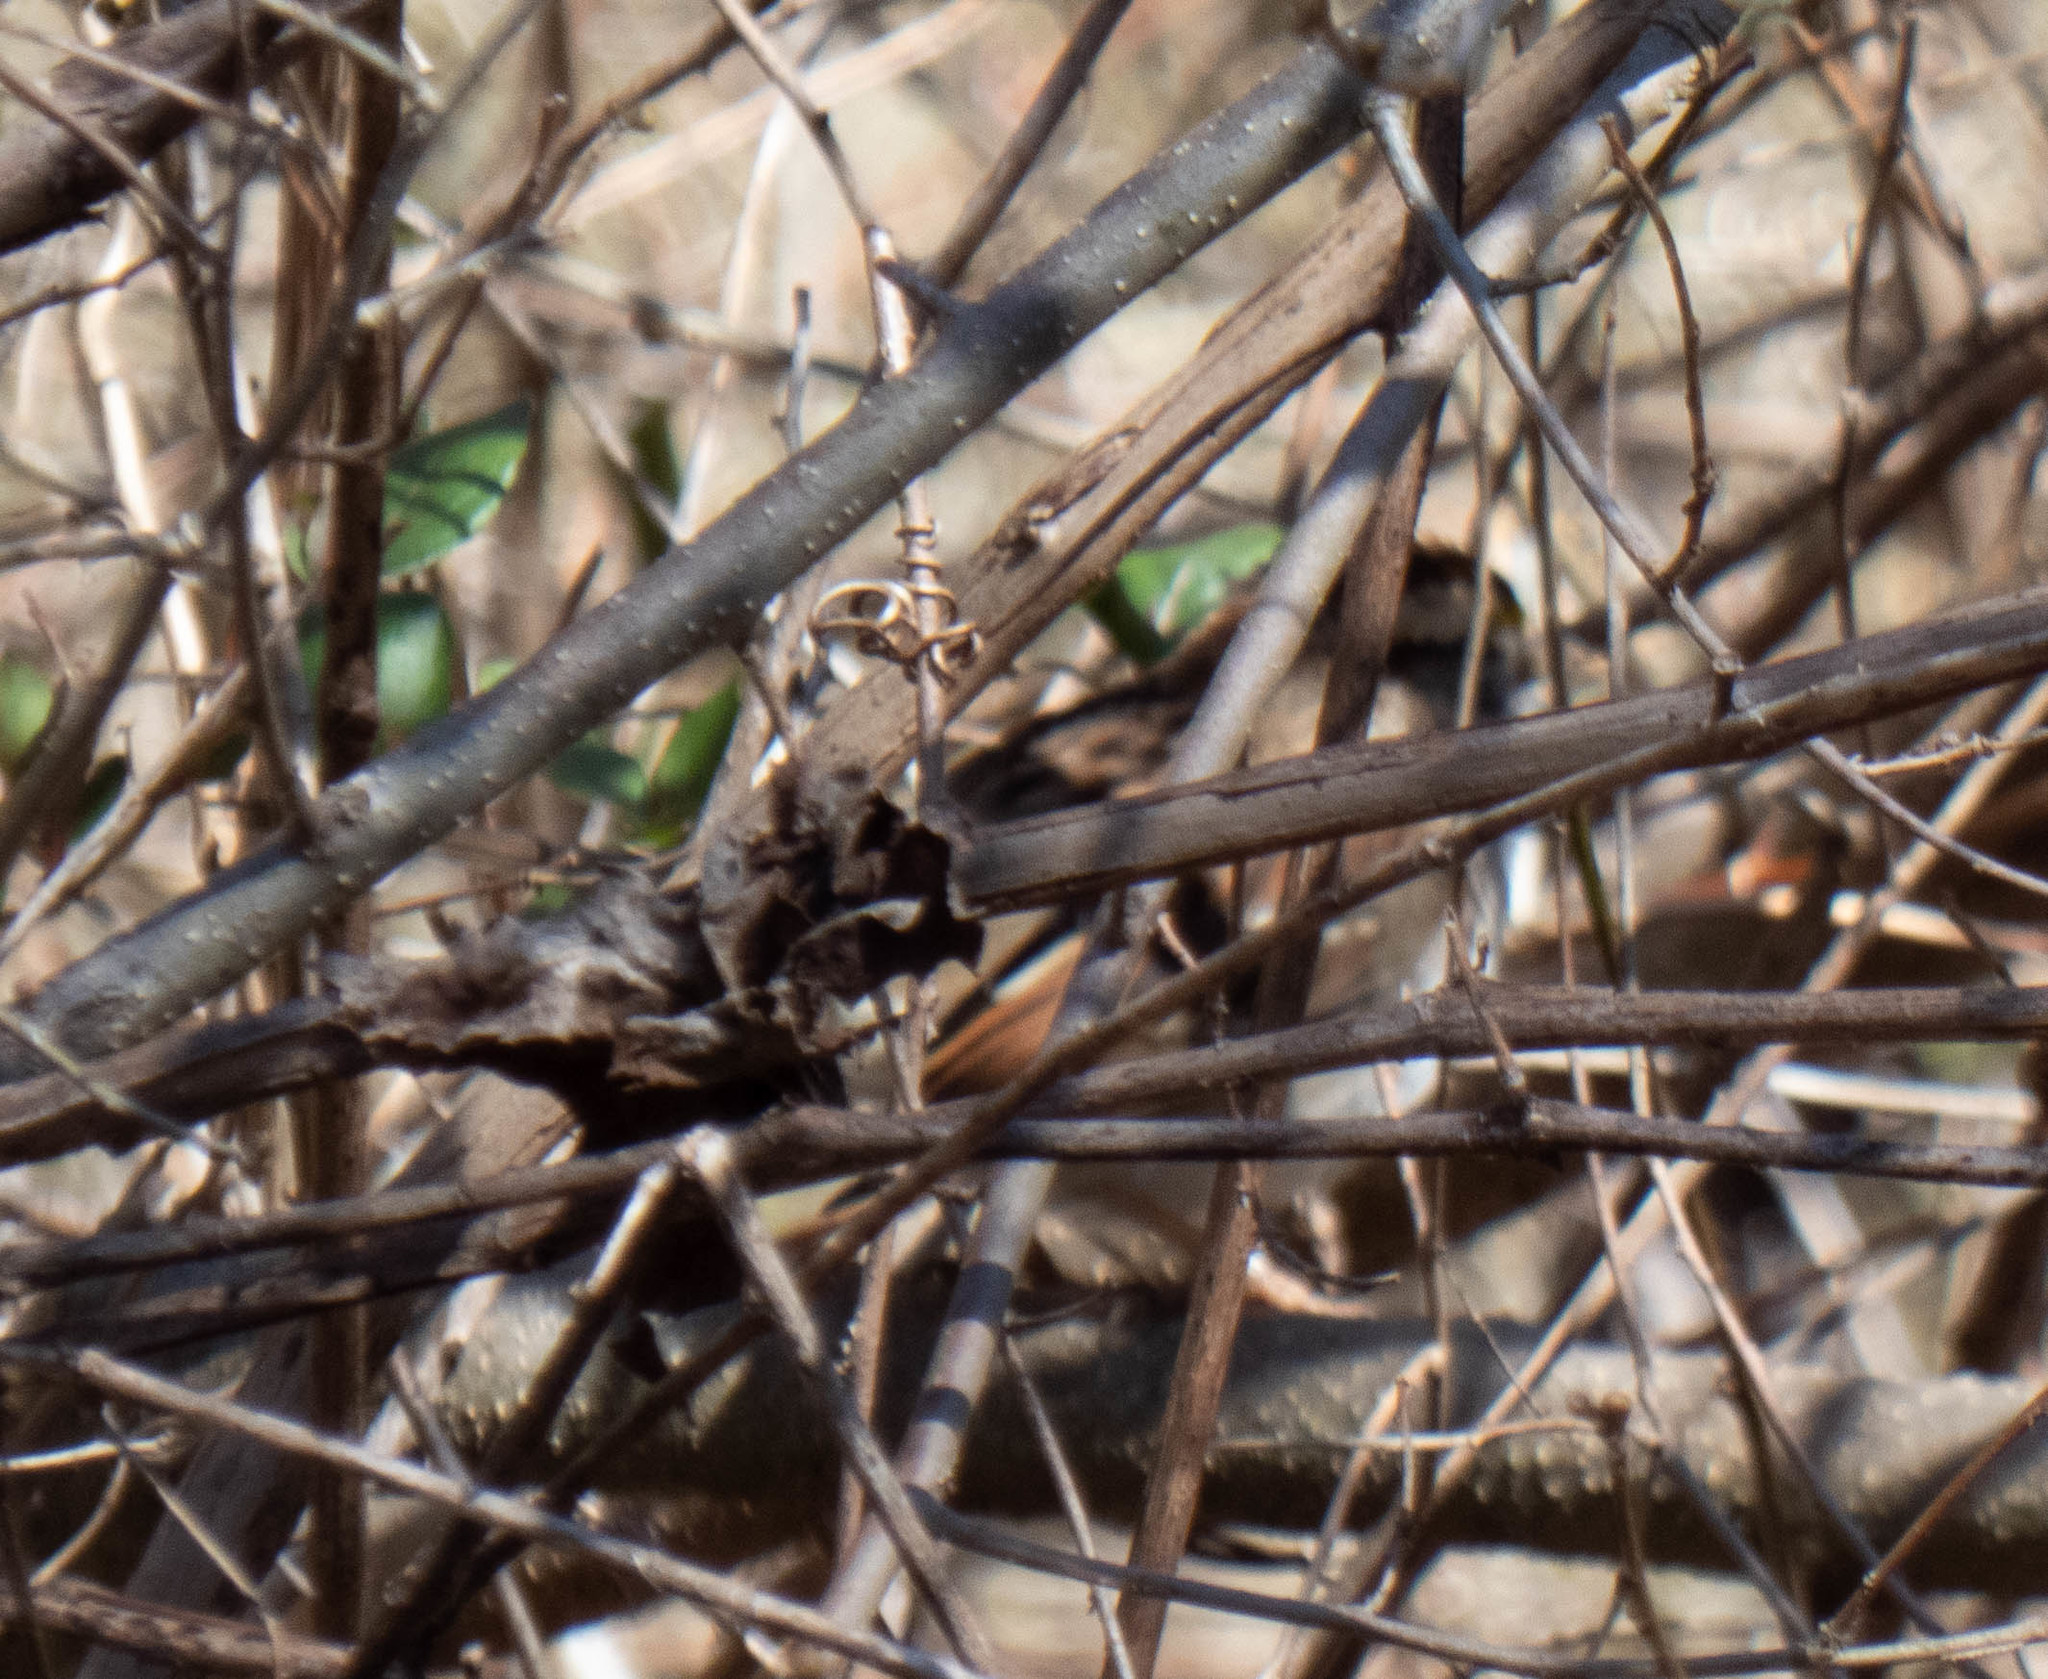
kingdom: Animalia
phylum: Chordata
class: Aves
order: Passeriformes
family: Passerellidae
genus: Zonotrichia
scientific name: Zonotrichia albicollis
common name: White-throated sparrow
